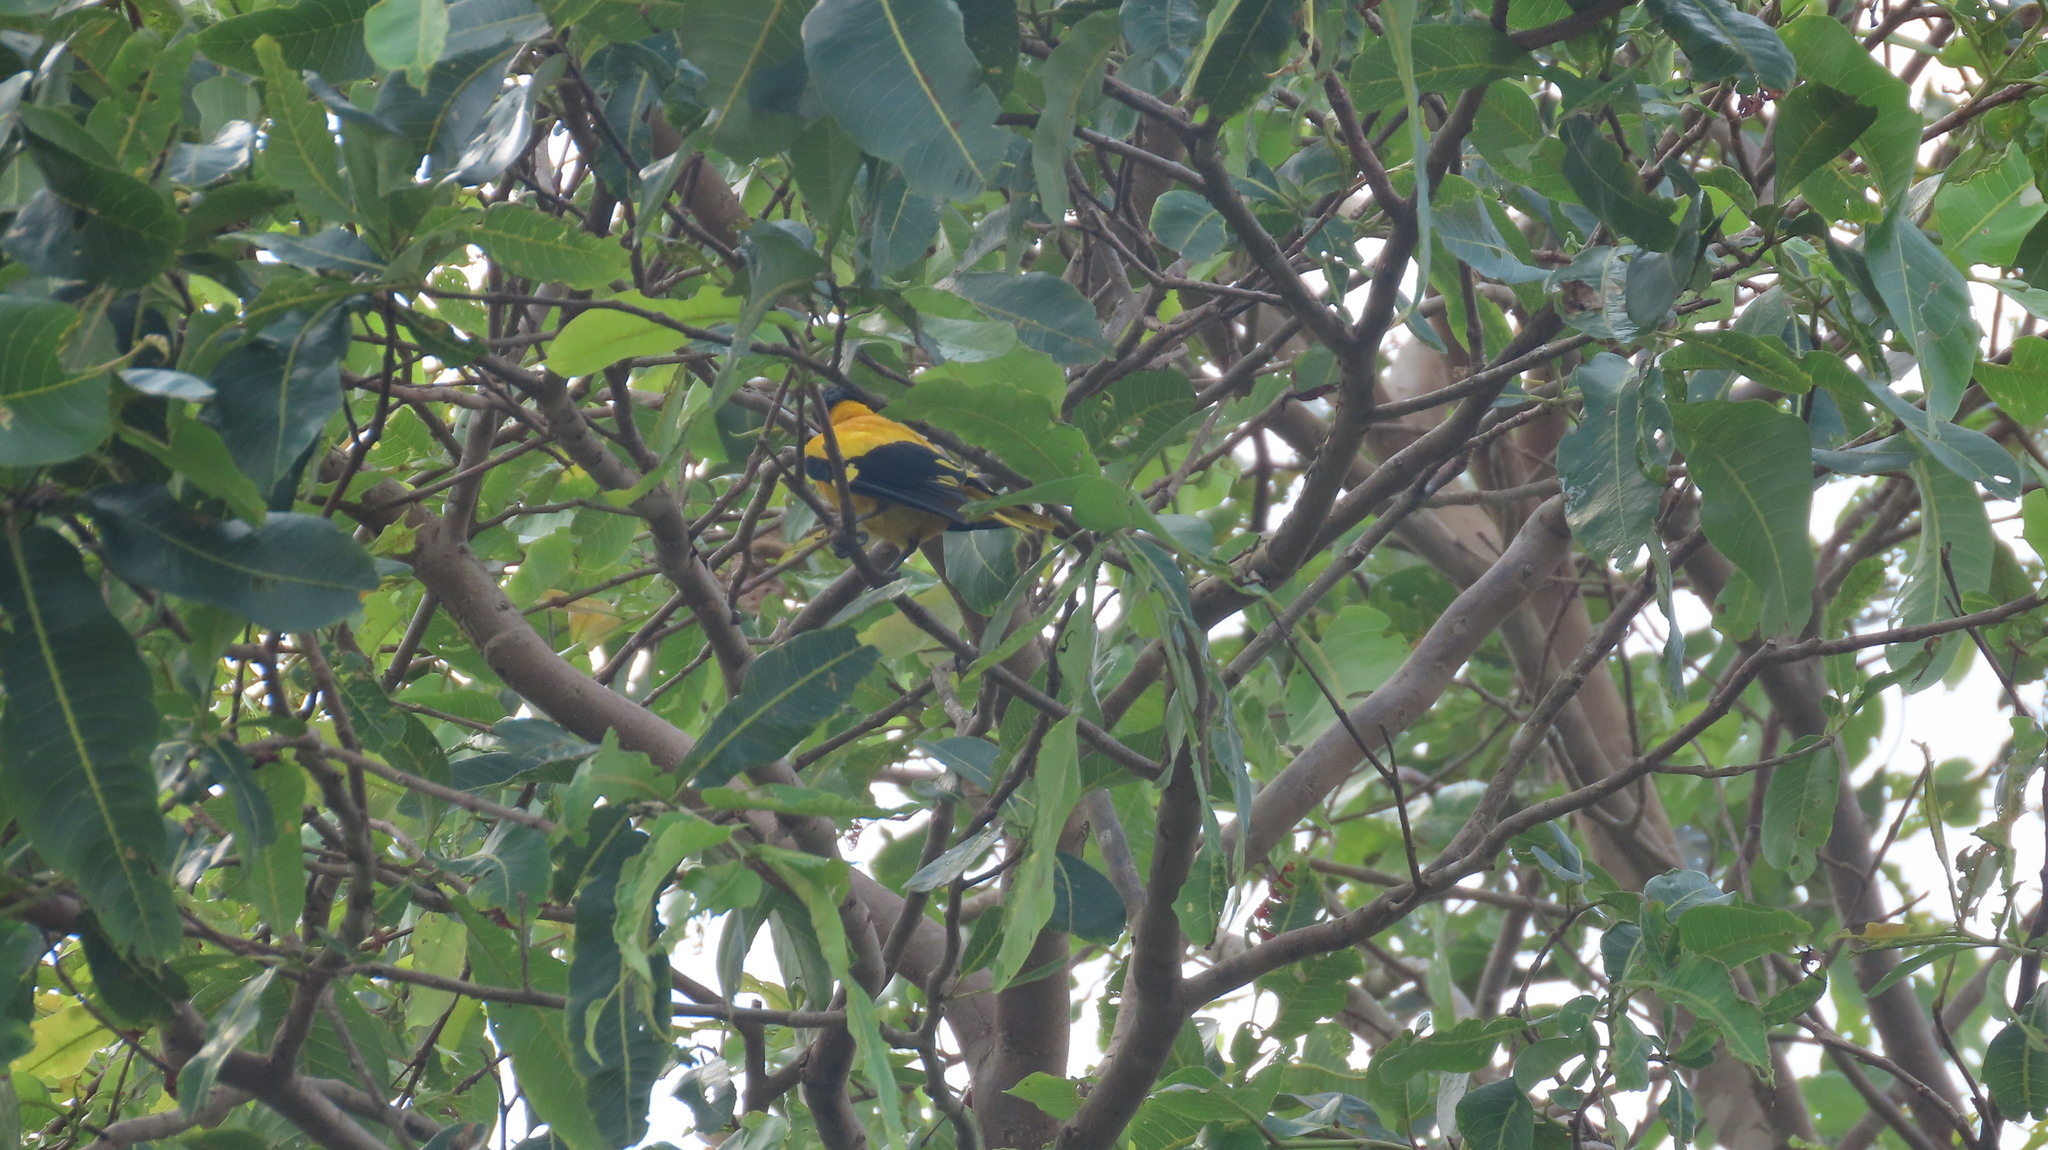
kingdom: Animalia
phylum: Chordata
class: Aves
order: Passeriformes
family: Oriolidae
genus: Oriolus
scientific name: Oriolus xanthornus
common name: Black-hooded oriole
